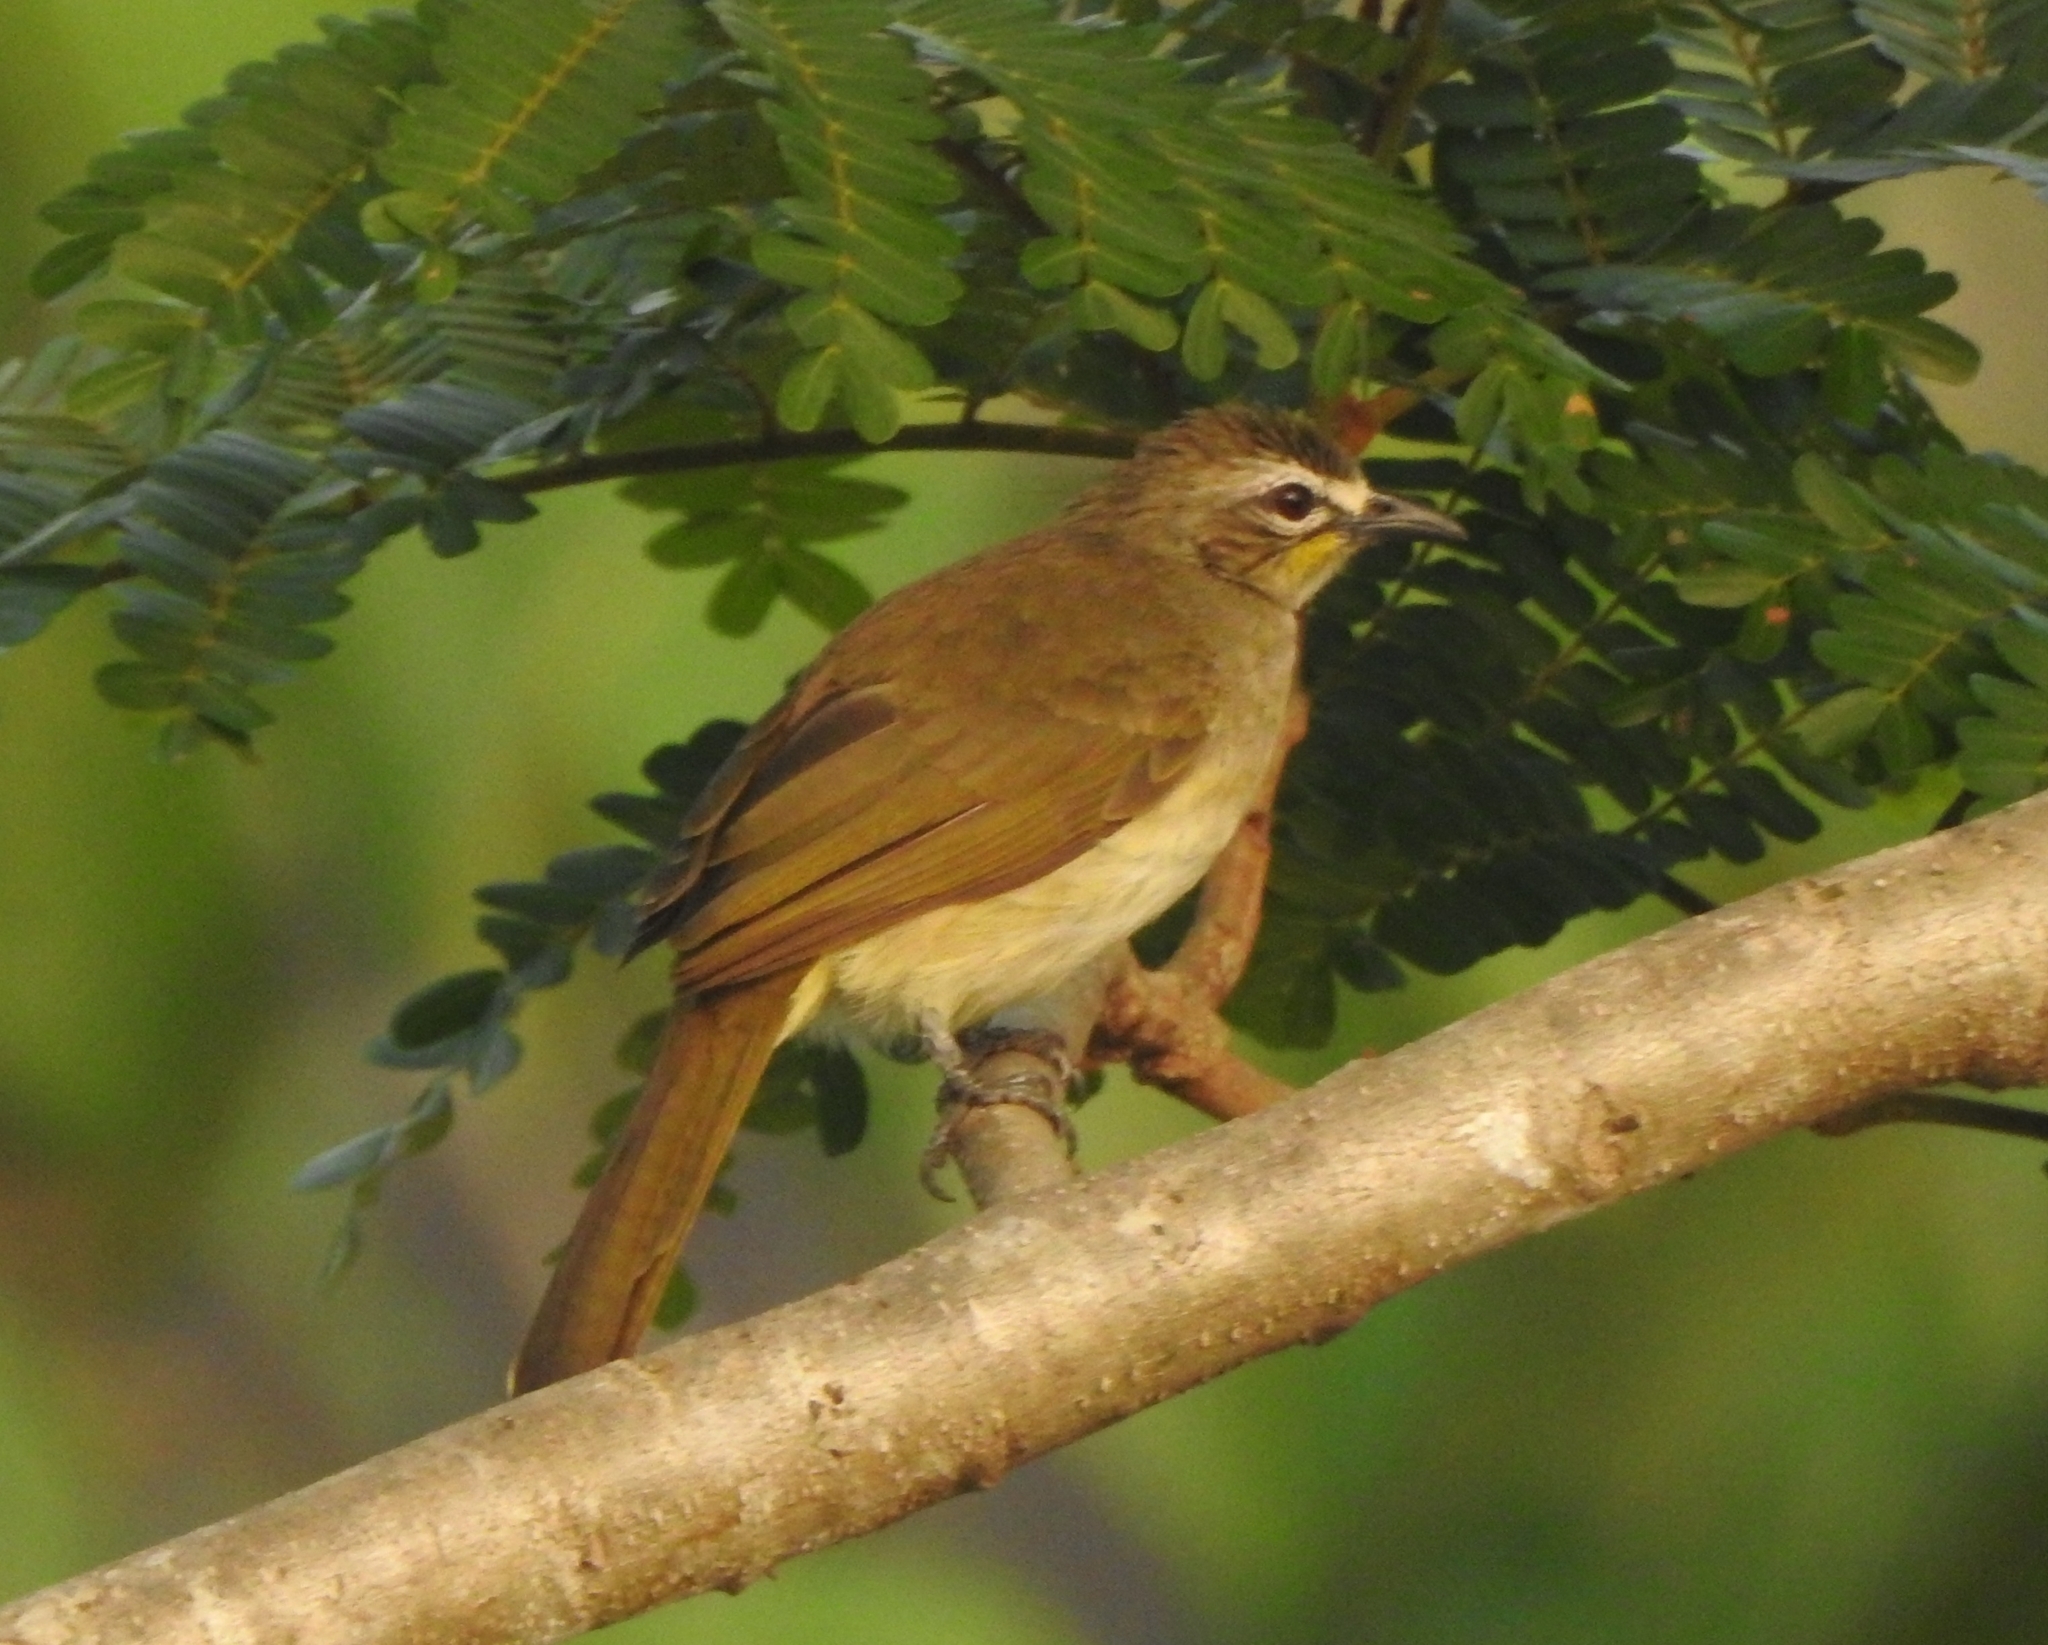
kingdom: Animalia
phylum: Chordata
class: Aves
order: Passeriformes
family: Pycnonotidae
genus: Pycnonotus
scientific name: Pycnonotus luteolus
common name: White-browed bulbul
